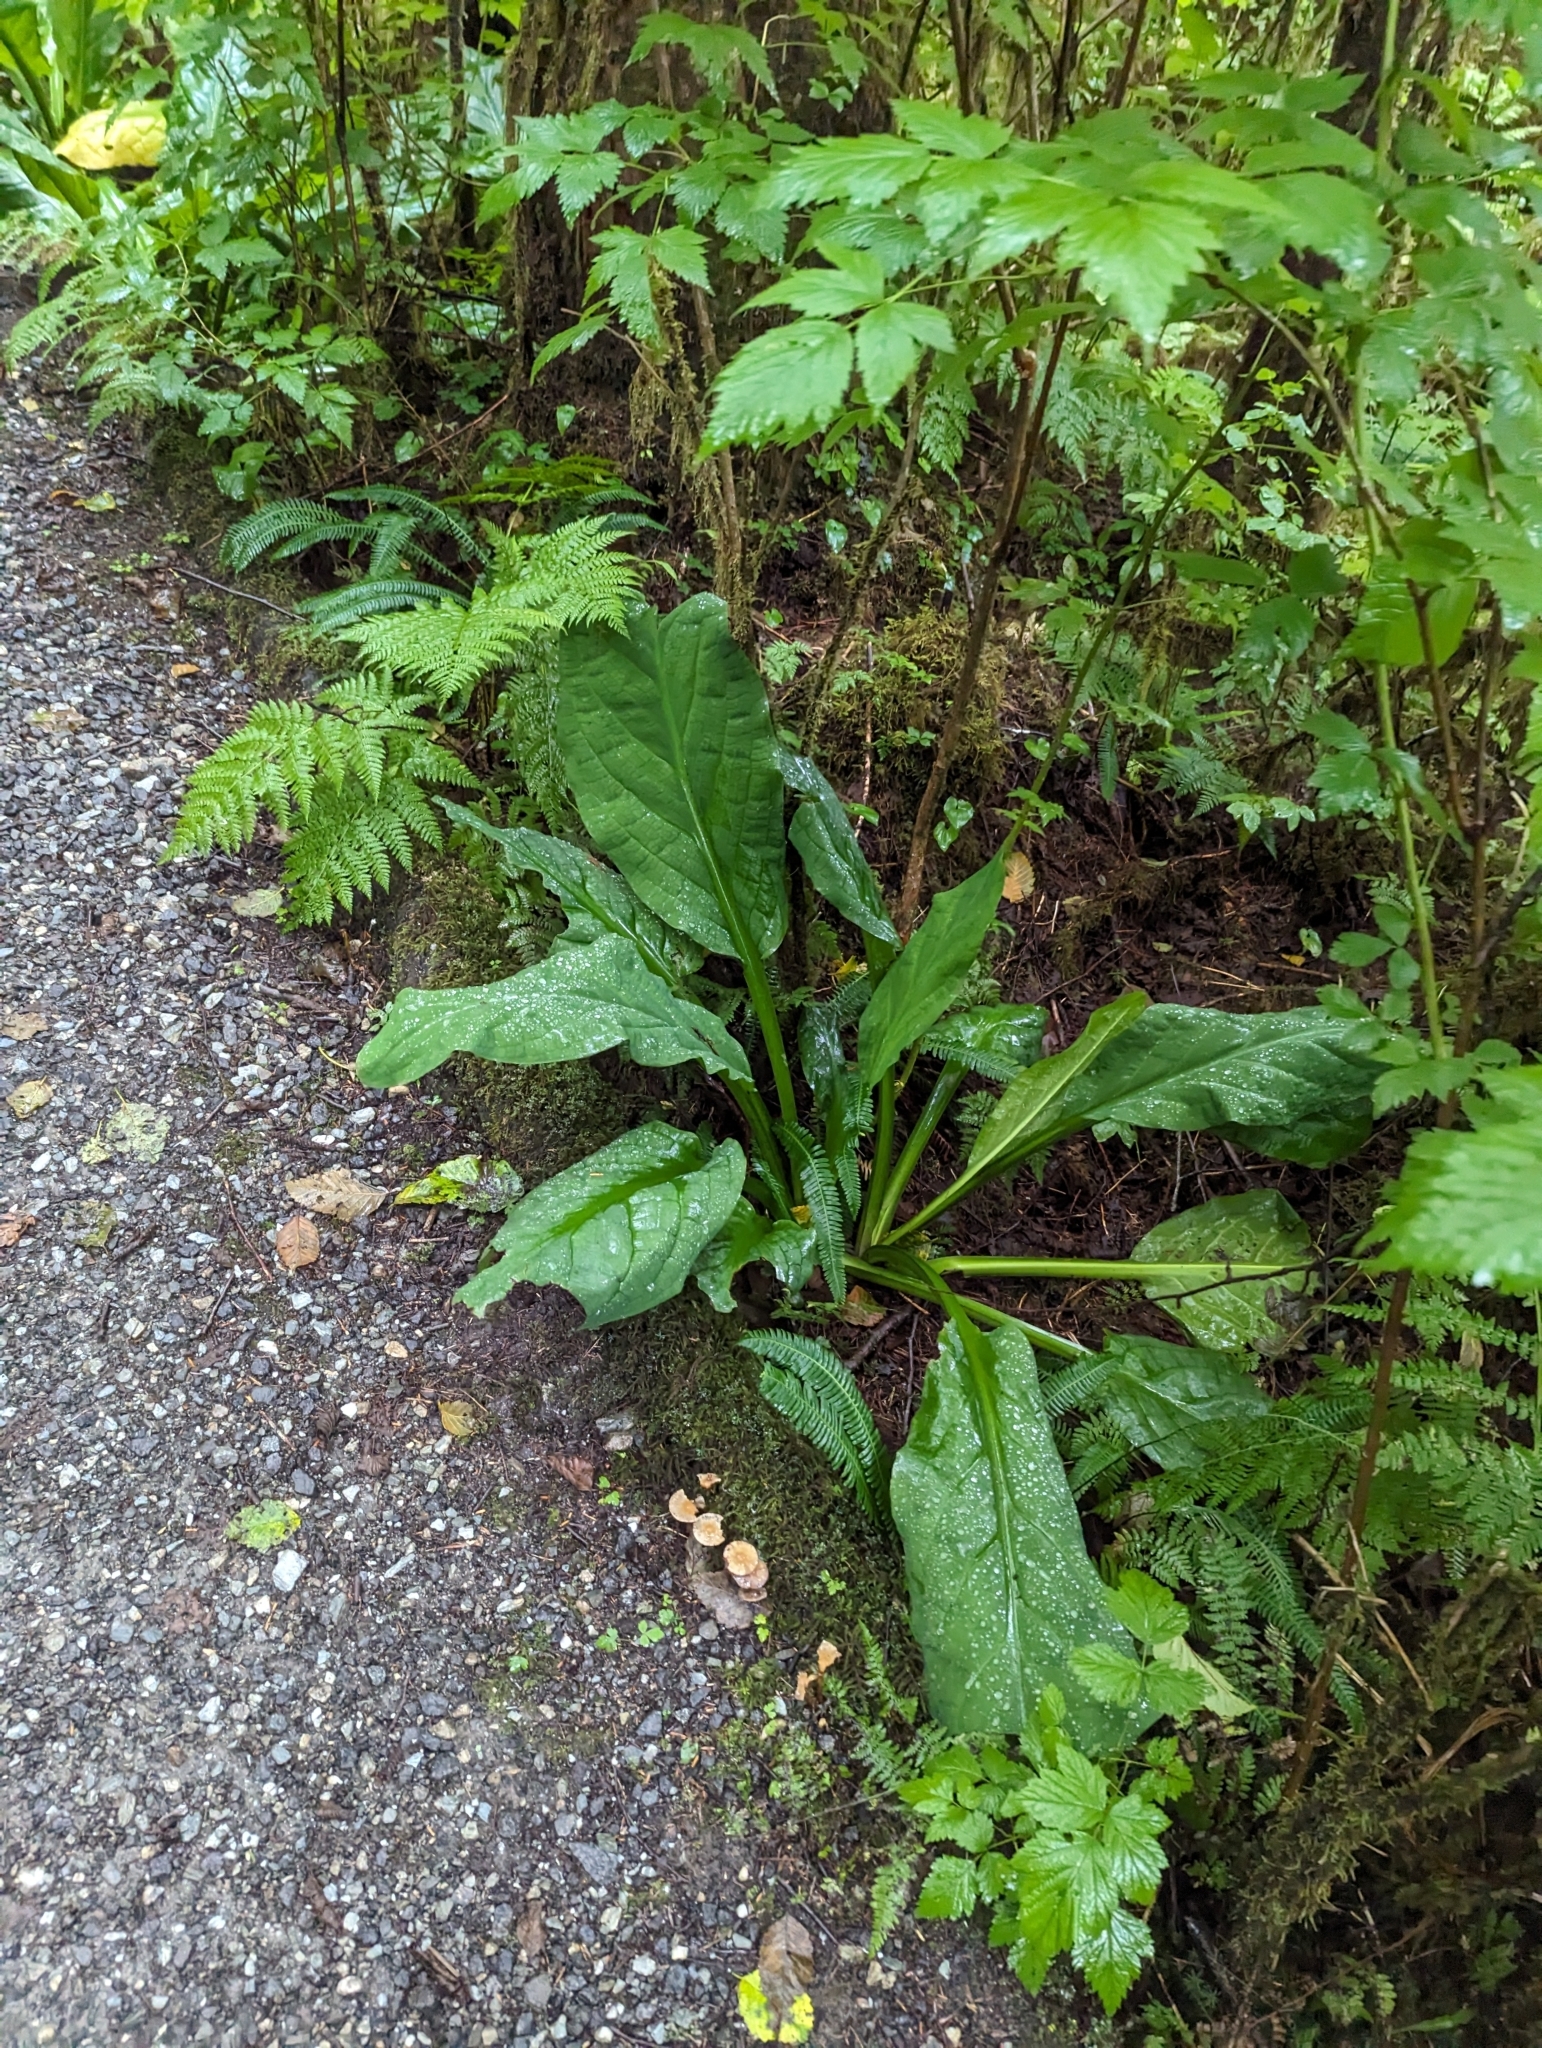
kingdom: Plantae
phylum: Tracheophyta
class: Liliopsida
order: Alismatales
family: Araceae
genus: Lysichiton
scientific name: Lysichiton americanus
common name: American skunk cabbage
